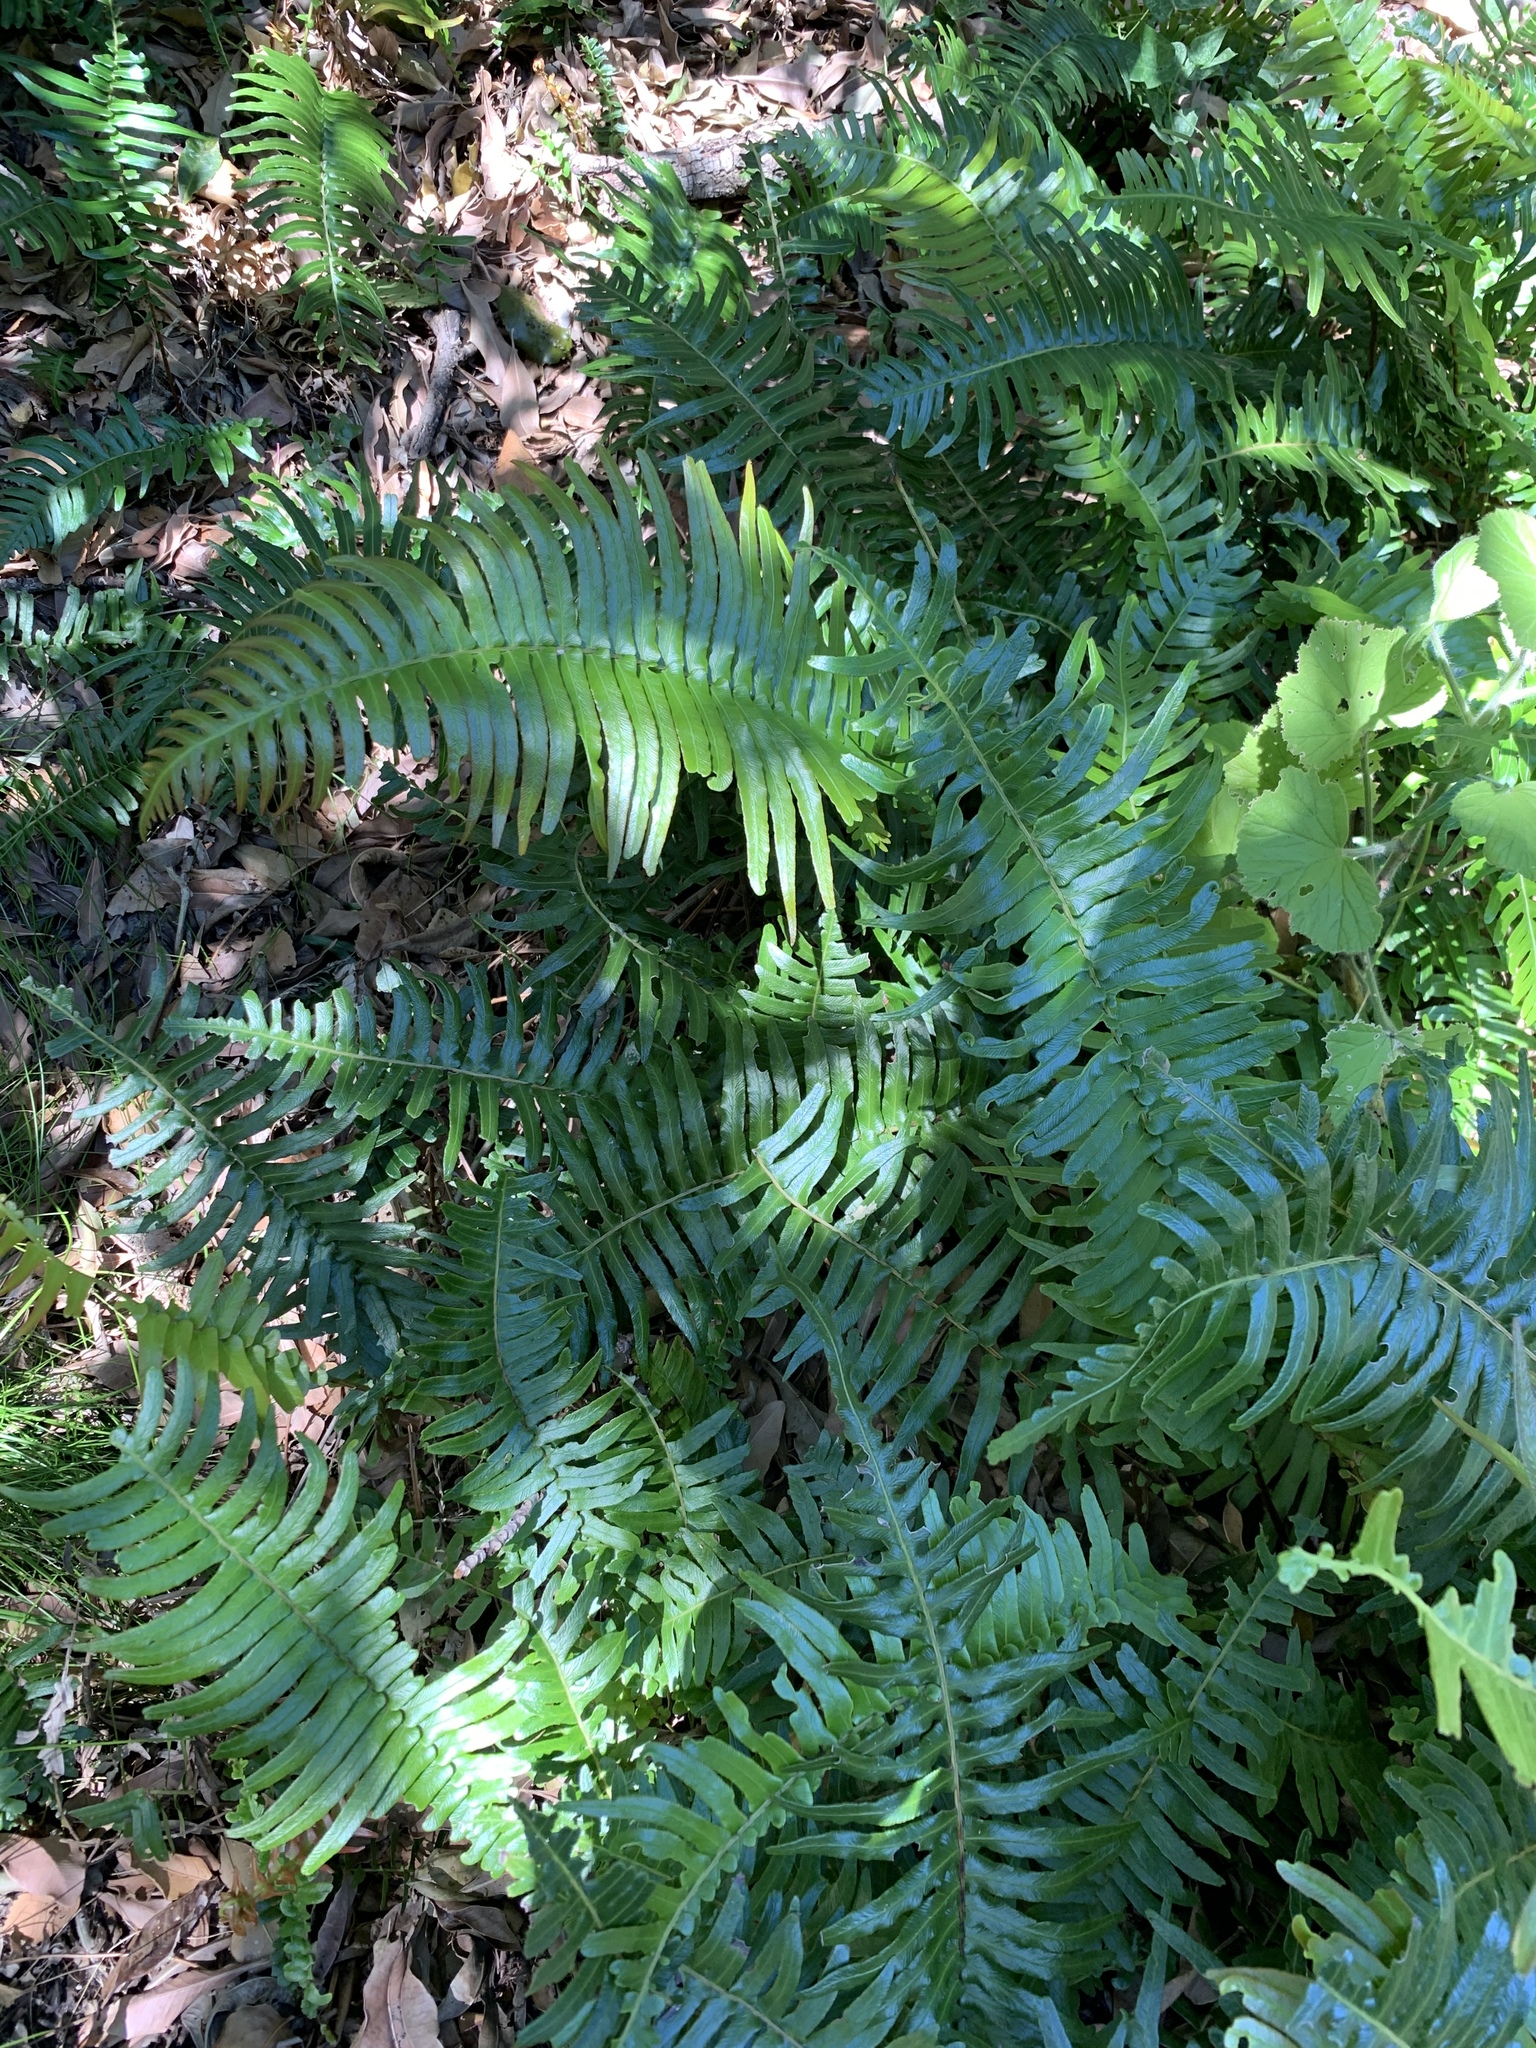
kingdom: Plantae
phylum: Tracheophyta
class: Polypodiopsida
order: Polypodiales
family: Blechnaceae
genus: Blechnum
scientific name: Blechnum punctulatum
